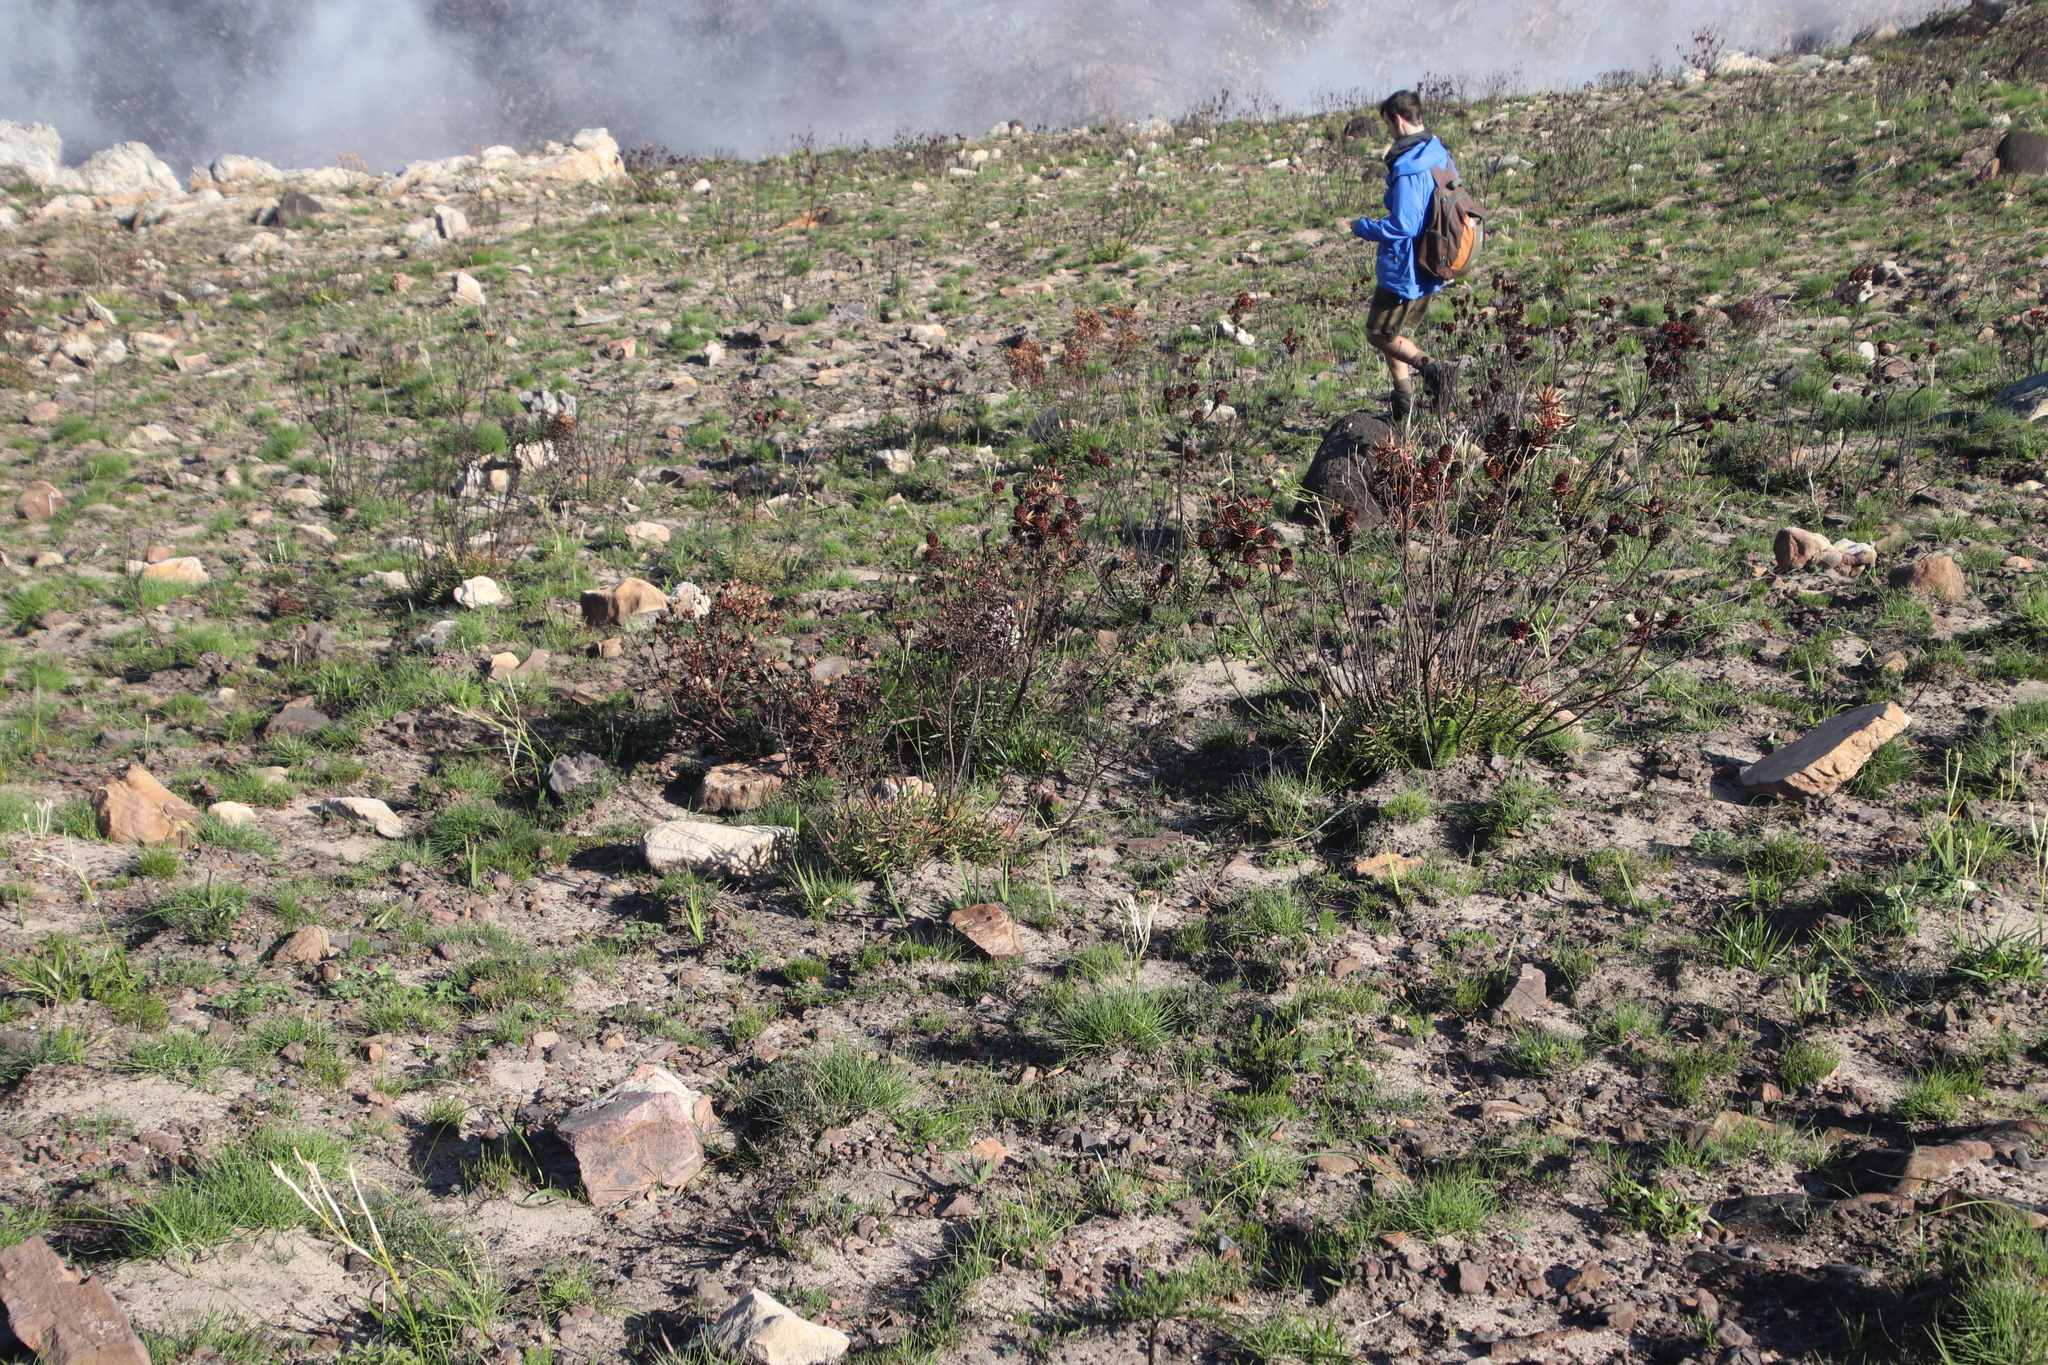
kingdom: Plantae
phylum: Tracheophyta
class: Magnoliopsida
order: Proteales
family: Proteaceae
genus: Leucadendron
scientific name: Leucadendron spissifolium
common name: Spear-leaf conebush
